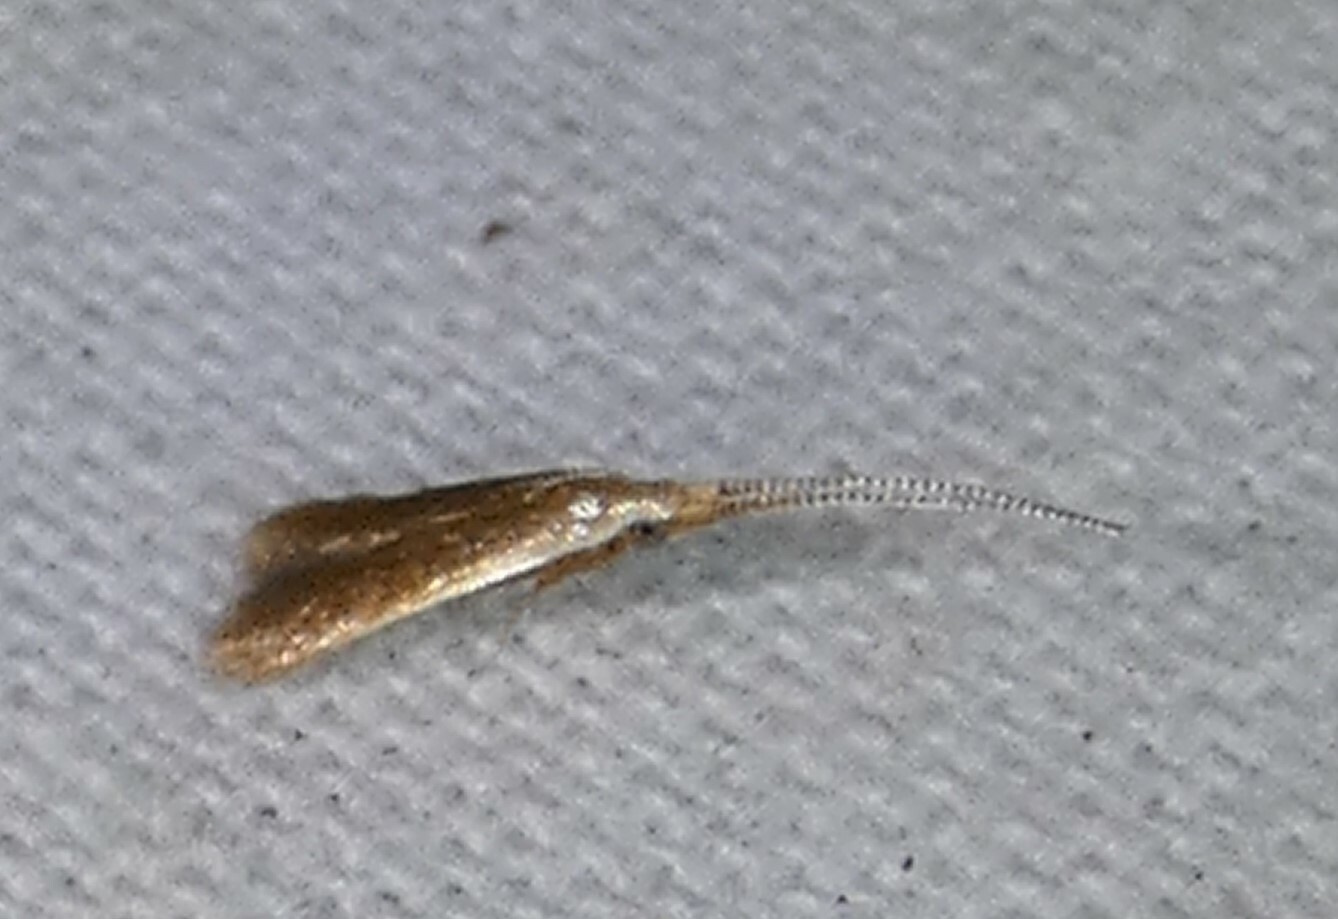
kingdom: Animalia
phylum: Arthropoda
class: Insecta
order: Lepidoptera
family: Coleophoridae
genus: Coleophora
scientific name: Coleophora laticornella
